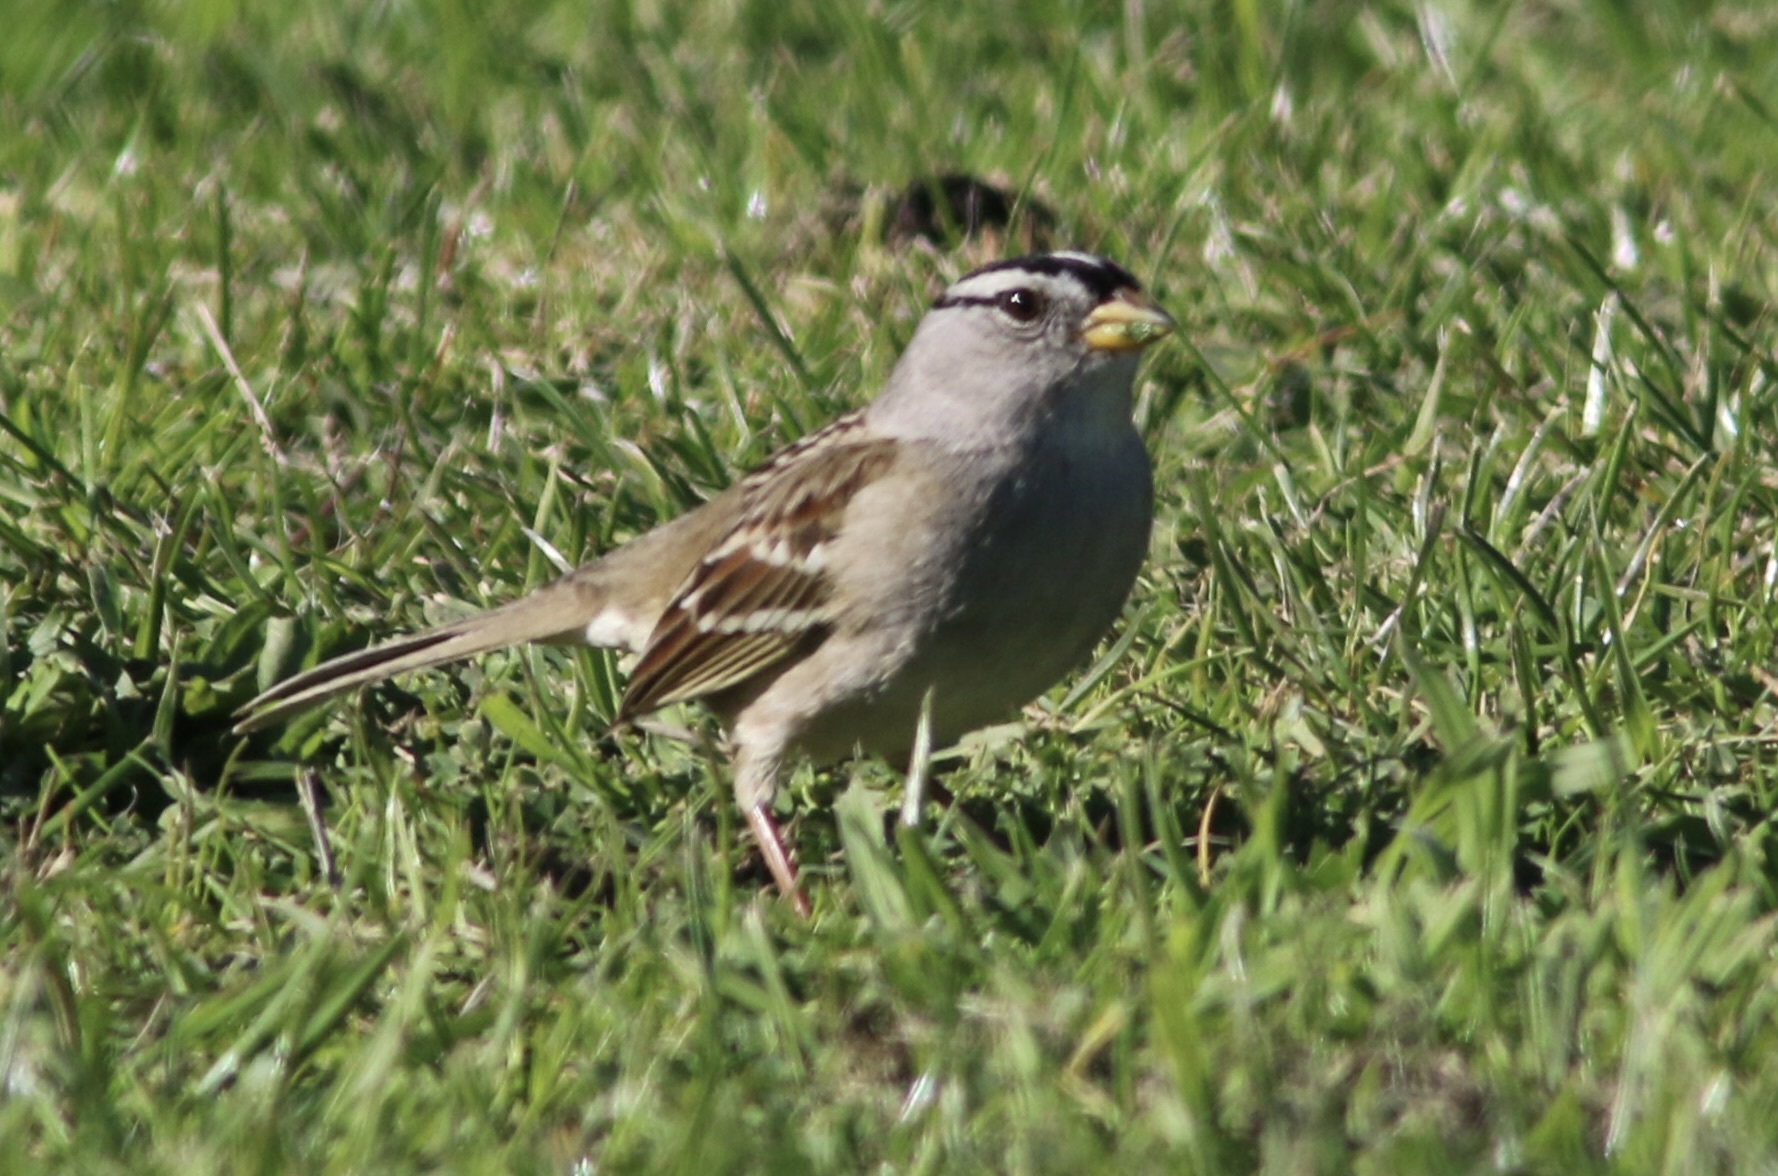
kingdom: Animalia
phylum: Chordata
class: Aves
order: Passeriformes
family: Passerellidae
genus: Zonotrichia
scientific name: Zonotrichia leucophrys
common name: White-crowned sparrow
